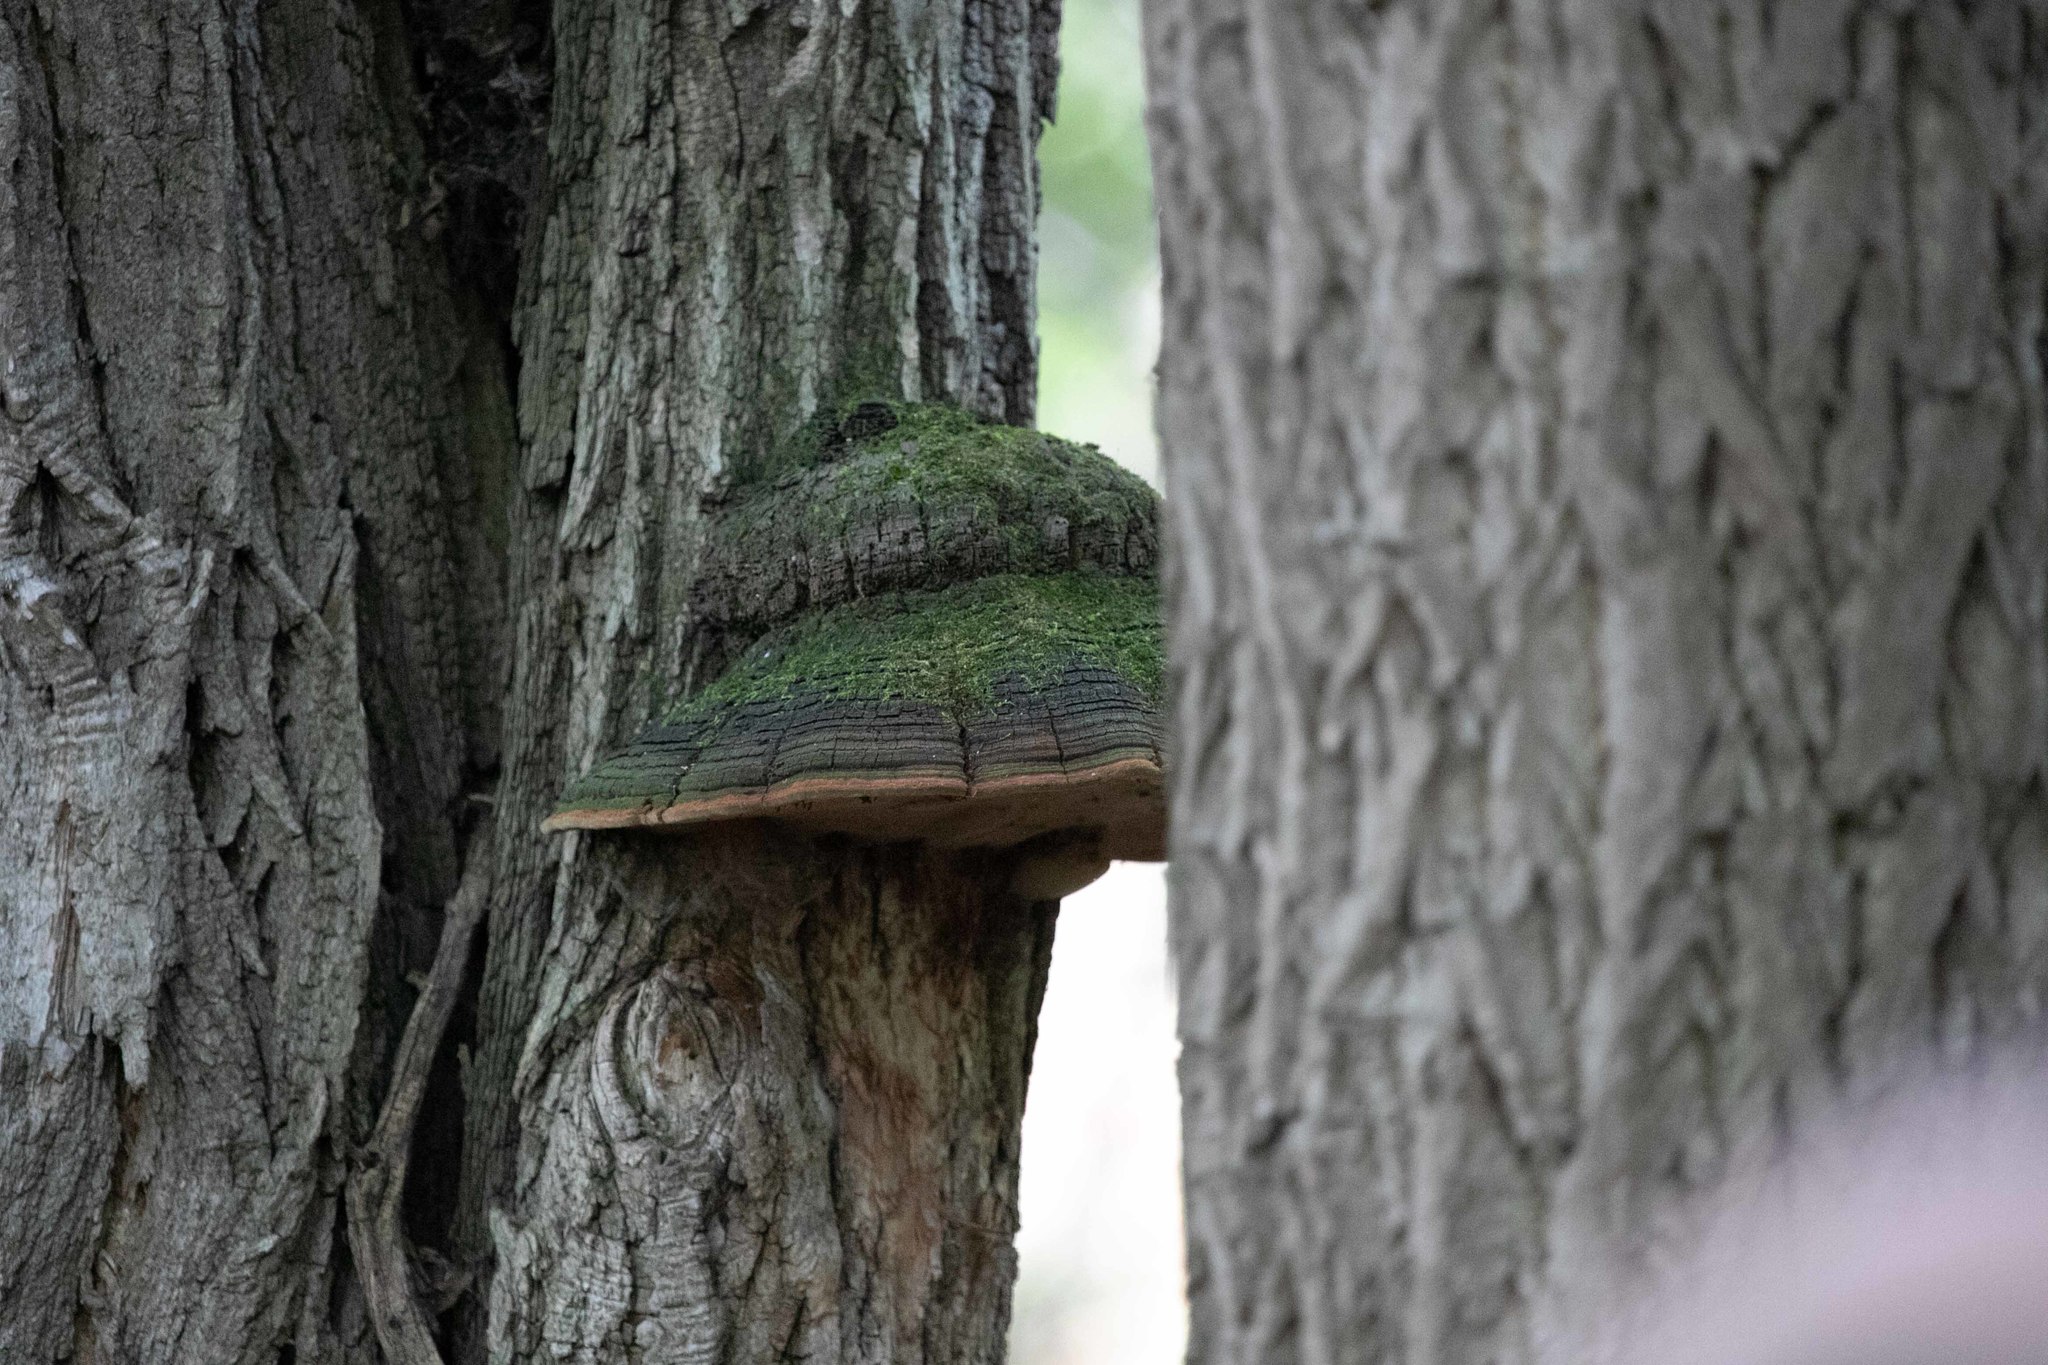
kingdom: Fungi
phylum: Basidiomycota
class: Agaricomycetes
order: Hymenochaetales
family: Hymenochaetaceae
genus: Phellinus
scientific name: Phellinus robiniae
